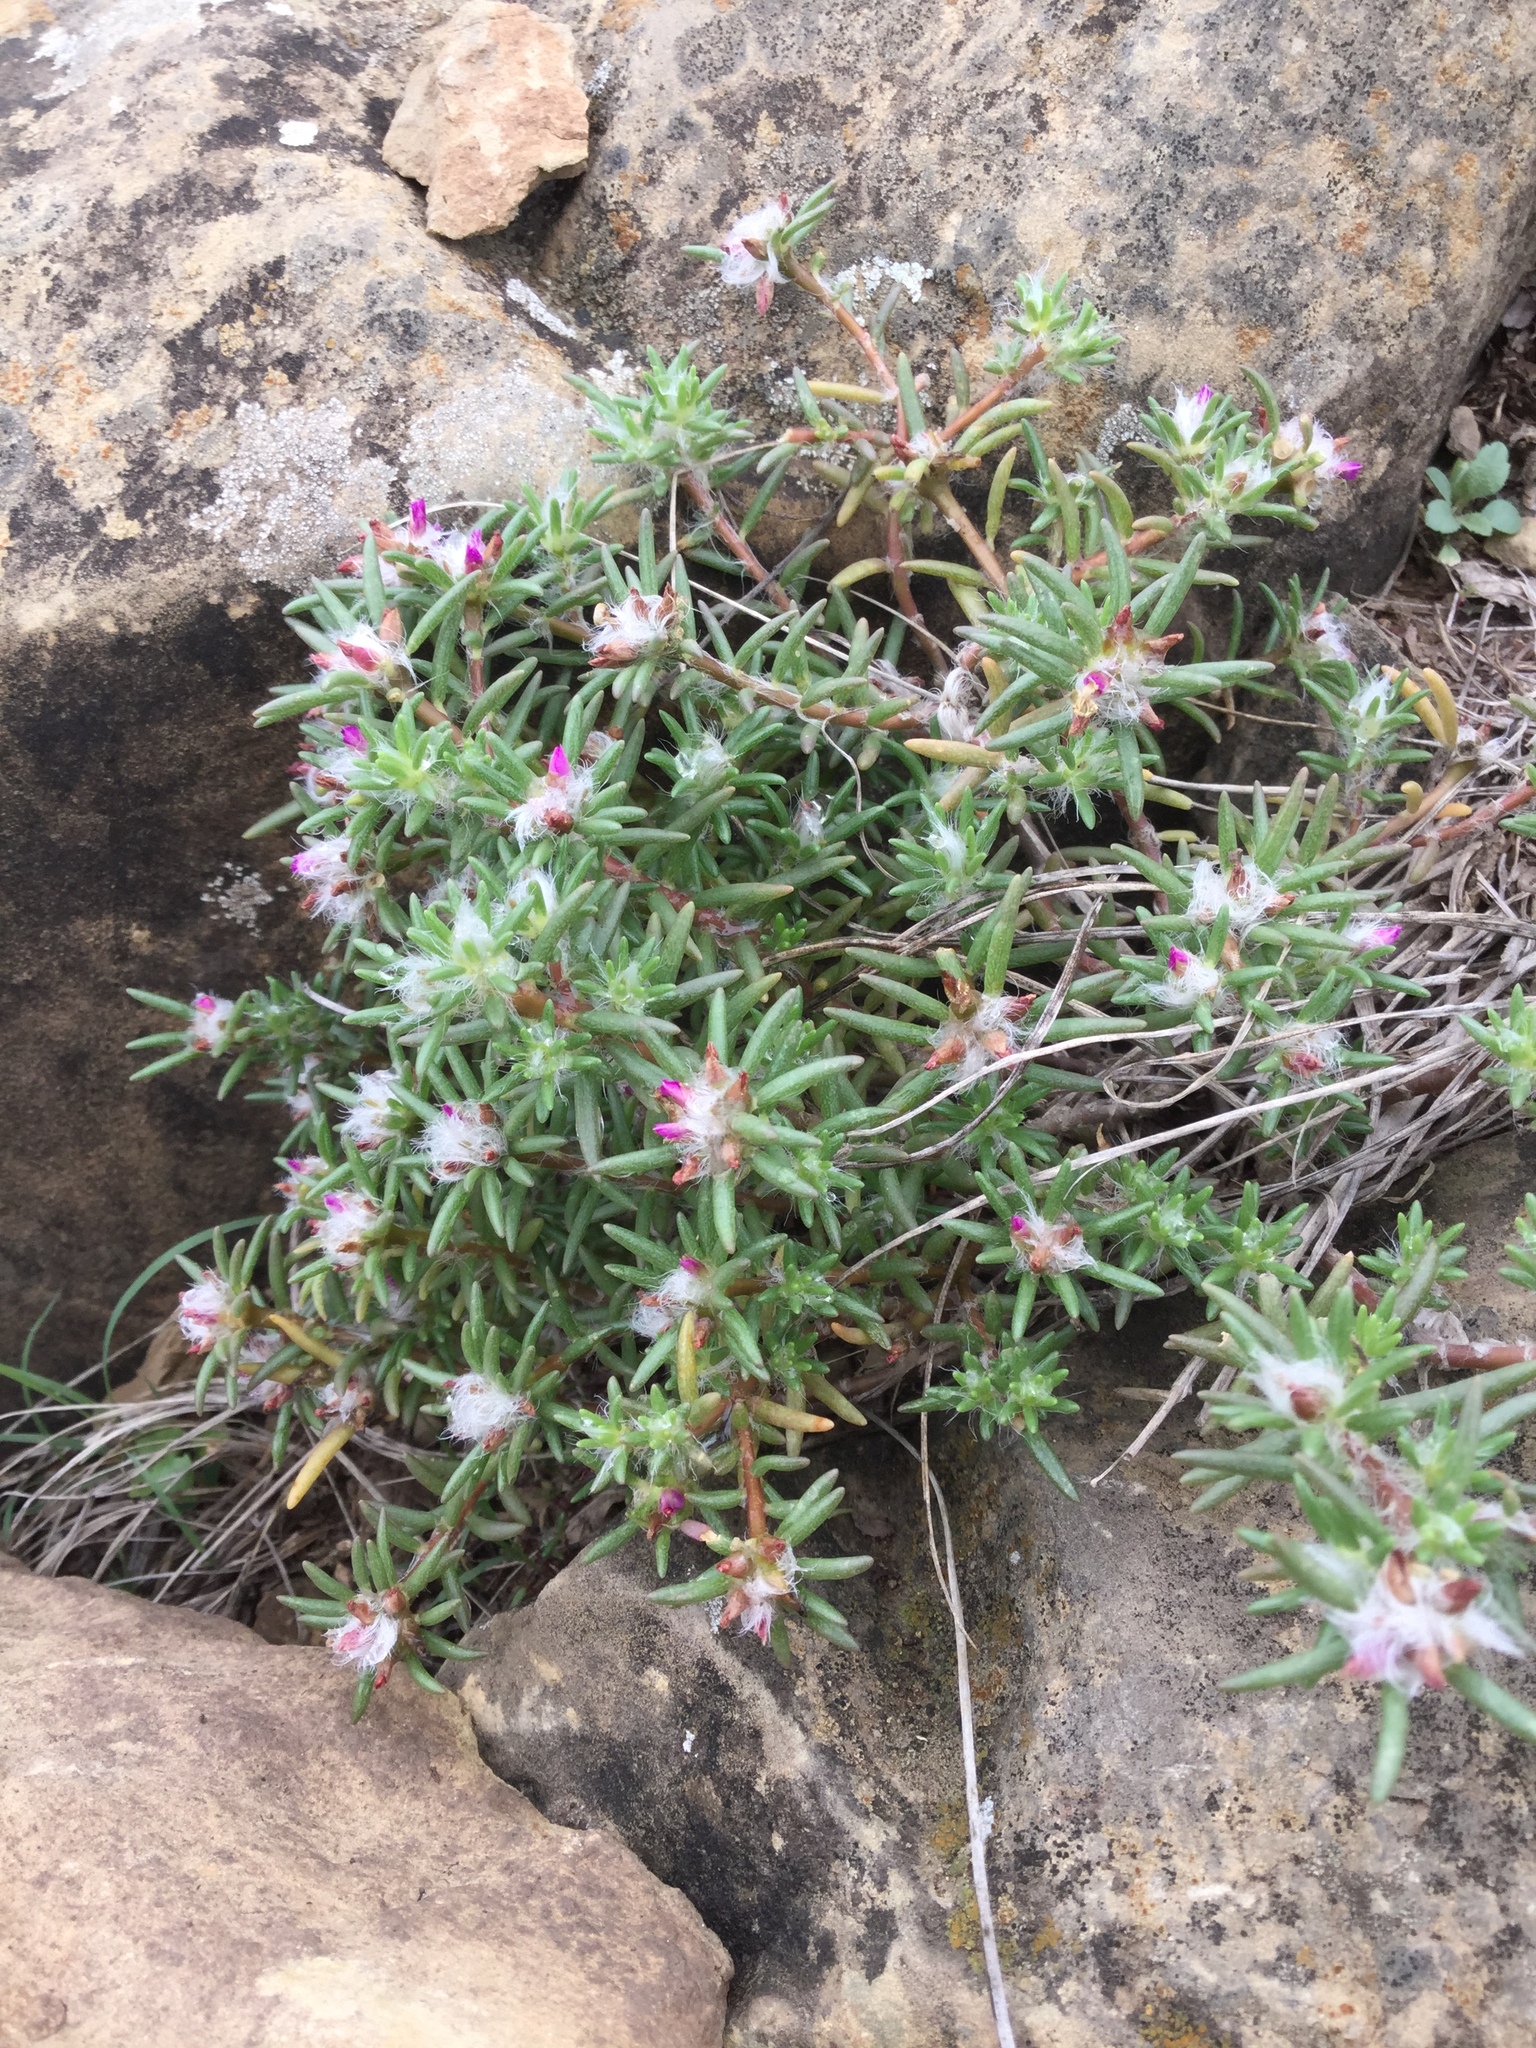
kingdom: Plantae
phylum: Tracheophyta
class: Magnoliopsida
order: Caryophyllales
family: Portulacaceae
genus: Portulaca
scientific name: Portulaca pilosa
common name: Kiss me quick
